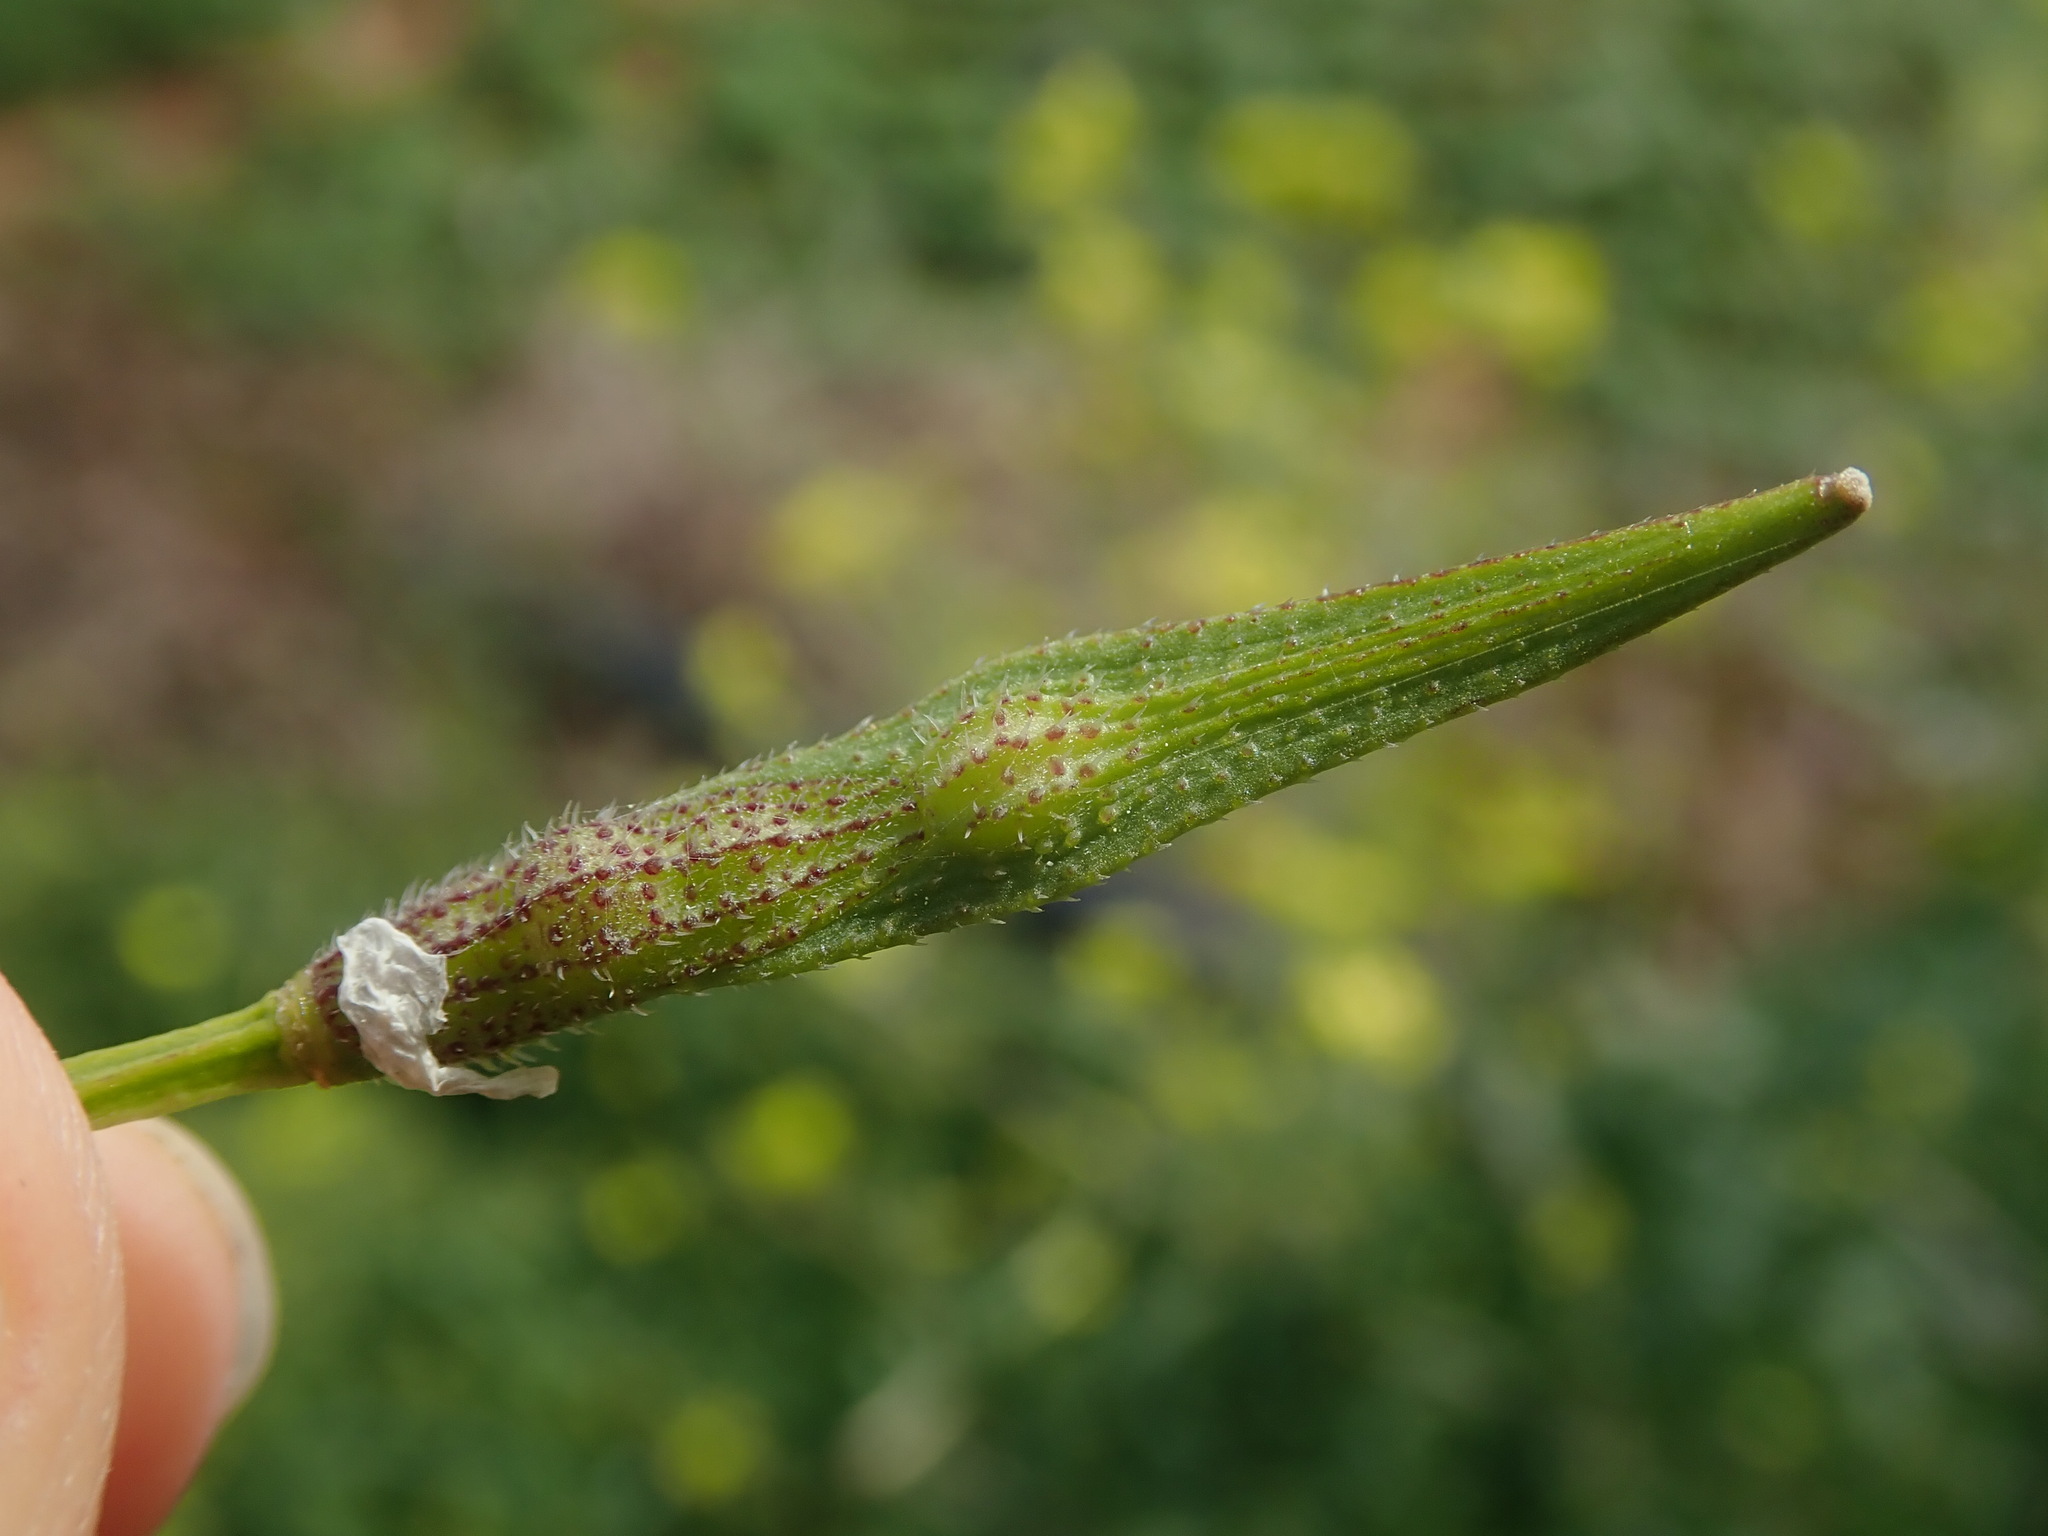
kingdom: Plantae
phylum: Tracheophyta
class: Magnoliopsida
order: Brassicales
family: Brassicaceae
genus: Sinapis
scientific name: Sinapis alba
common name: White mustard
